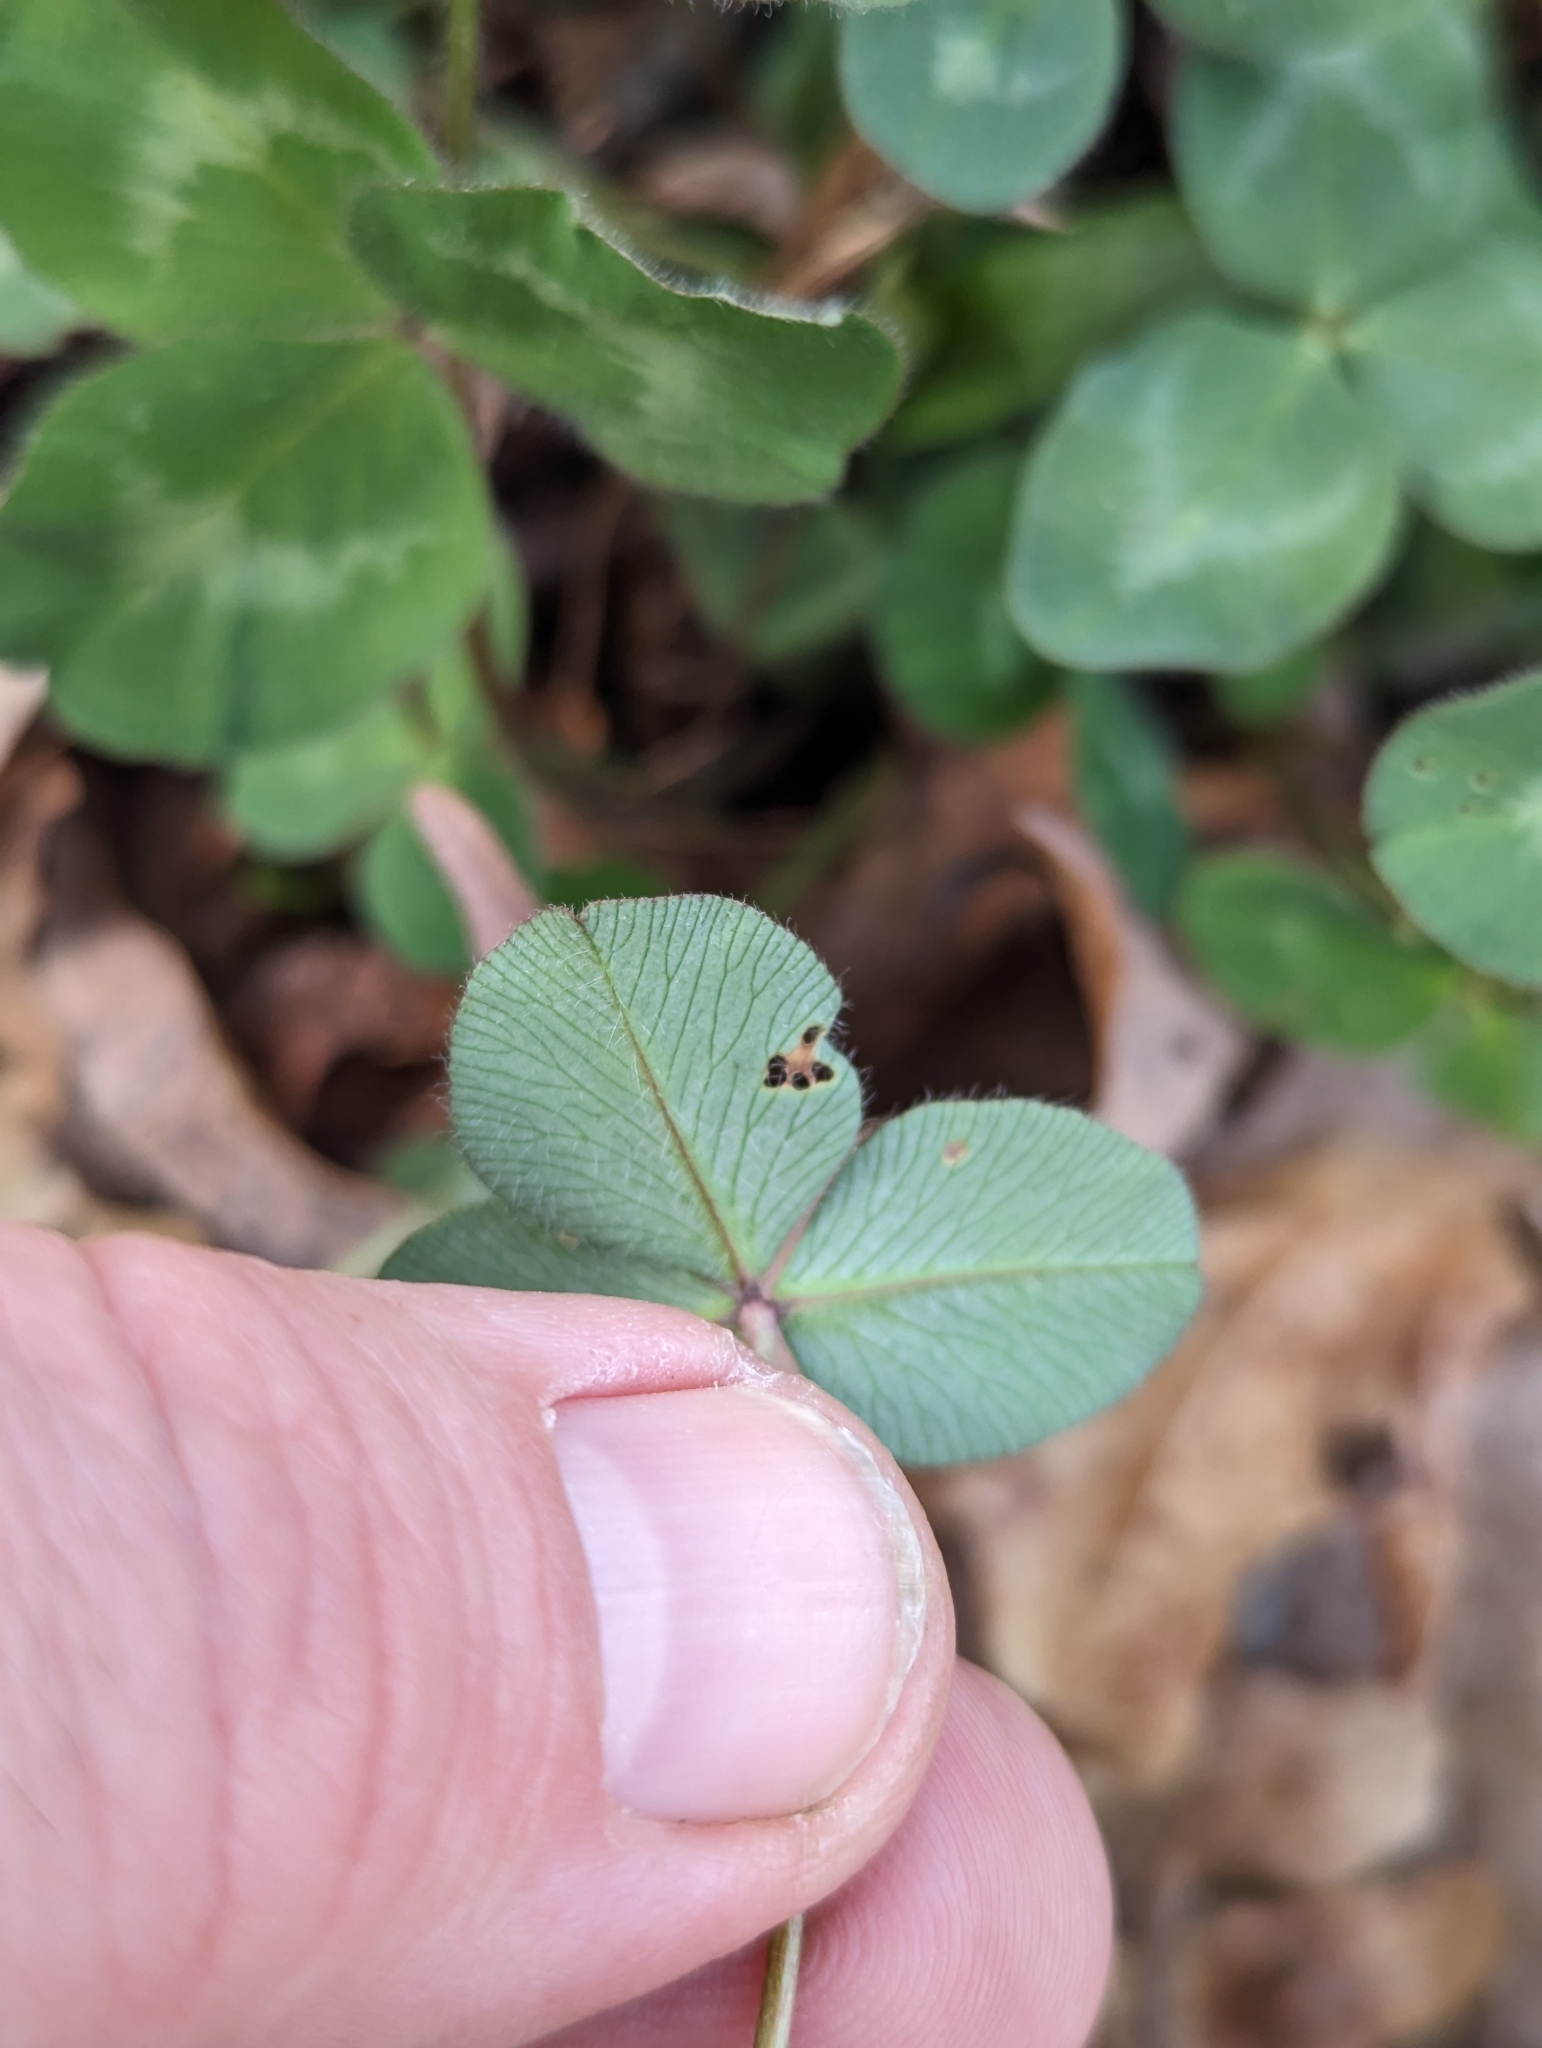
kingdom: Plantae
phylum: Tracheophyta
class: Magnoliopsida
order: Fabales
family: Fabaceae
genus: Trifolium
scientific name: Trifolium pratense
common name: Red clover
